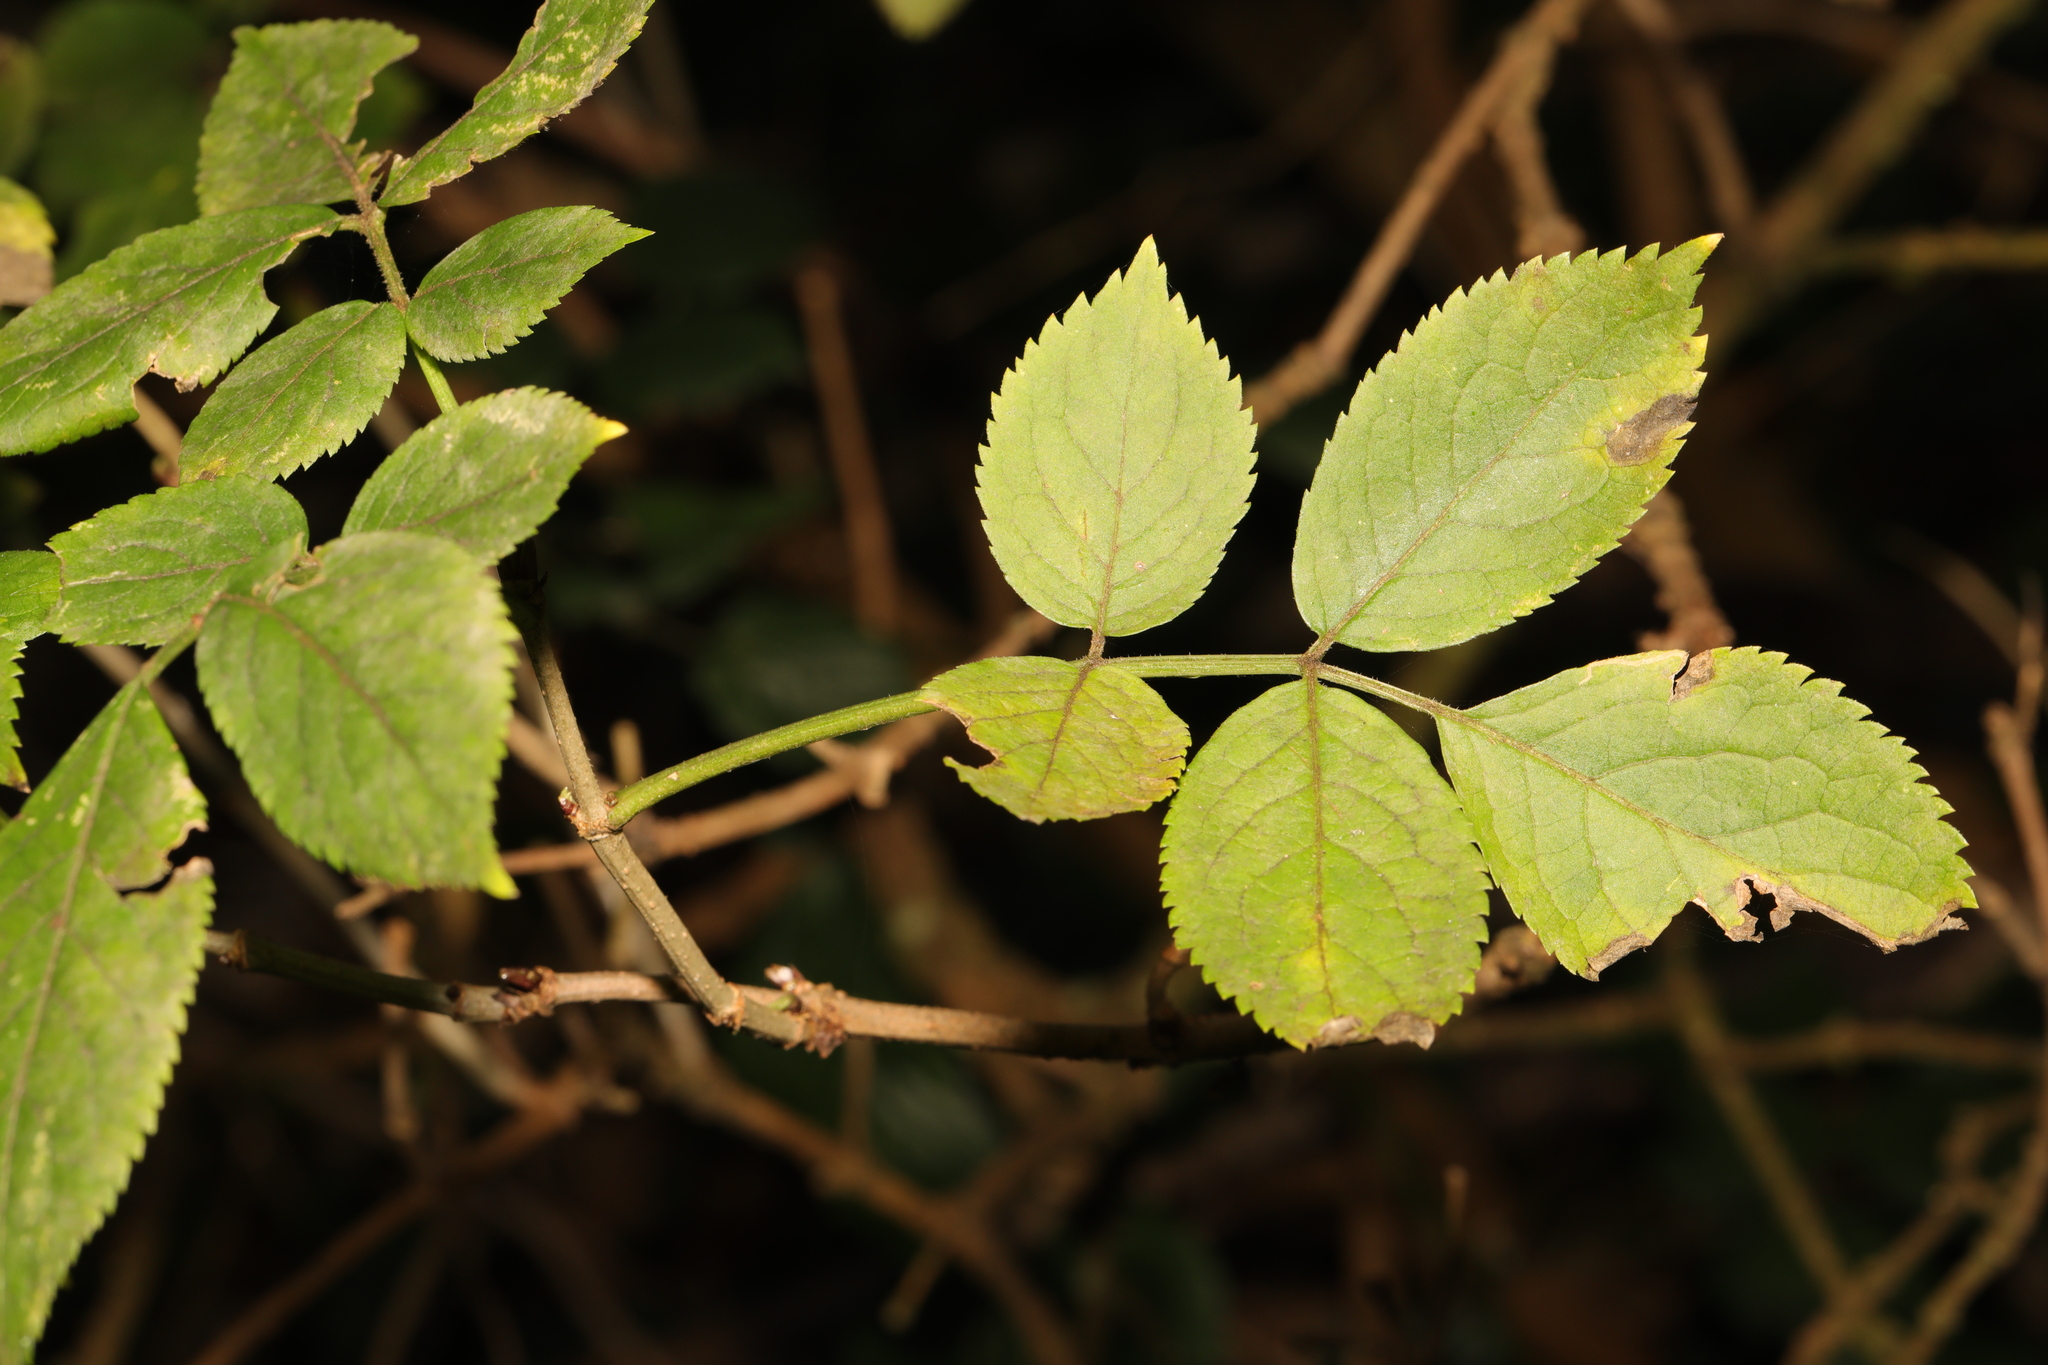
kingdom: Plantae
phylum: Tracheophyta
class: Magnoliopsida
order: Dipsacales
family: Viburnaceae
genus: Sambucus
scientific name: Sambucus nigra
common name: Elder
